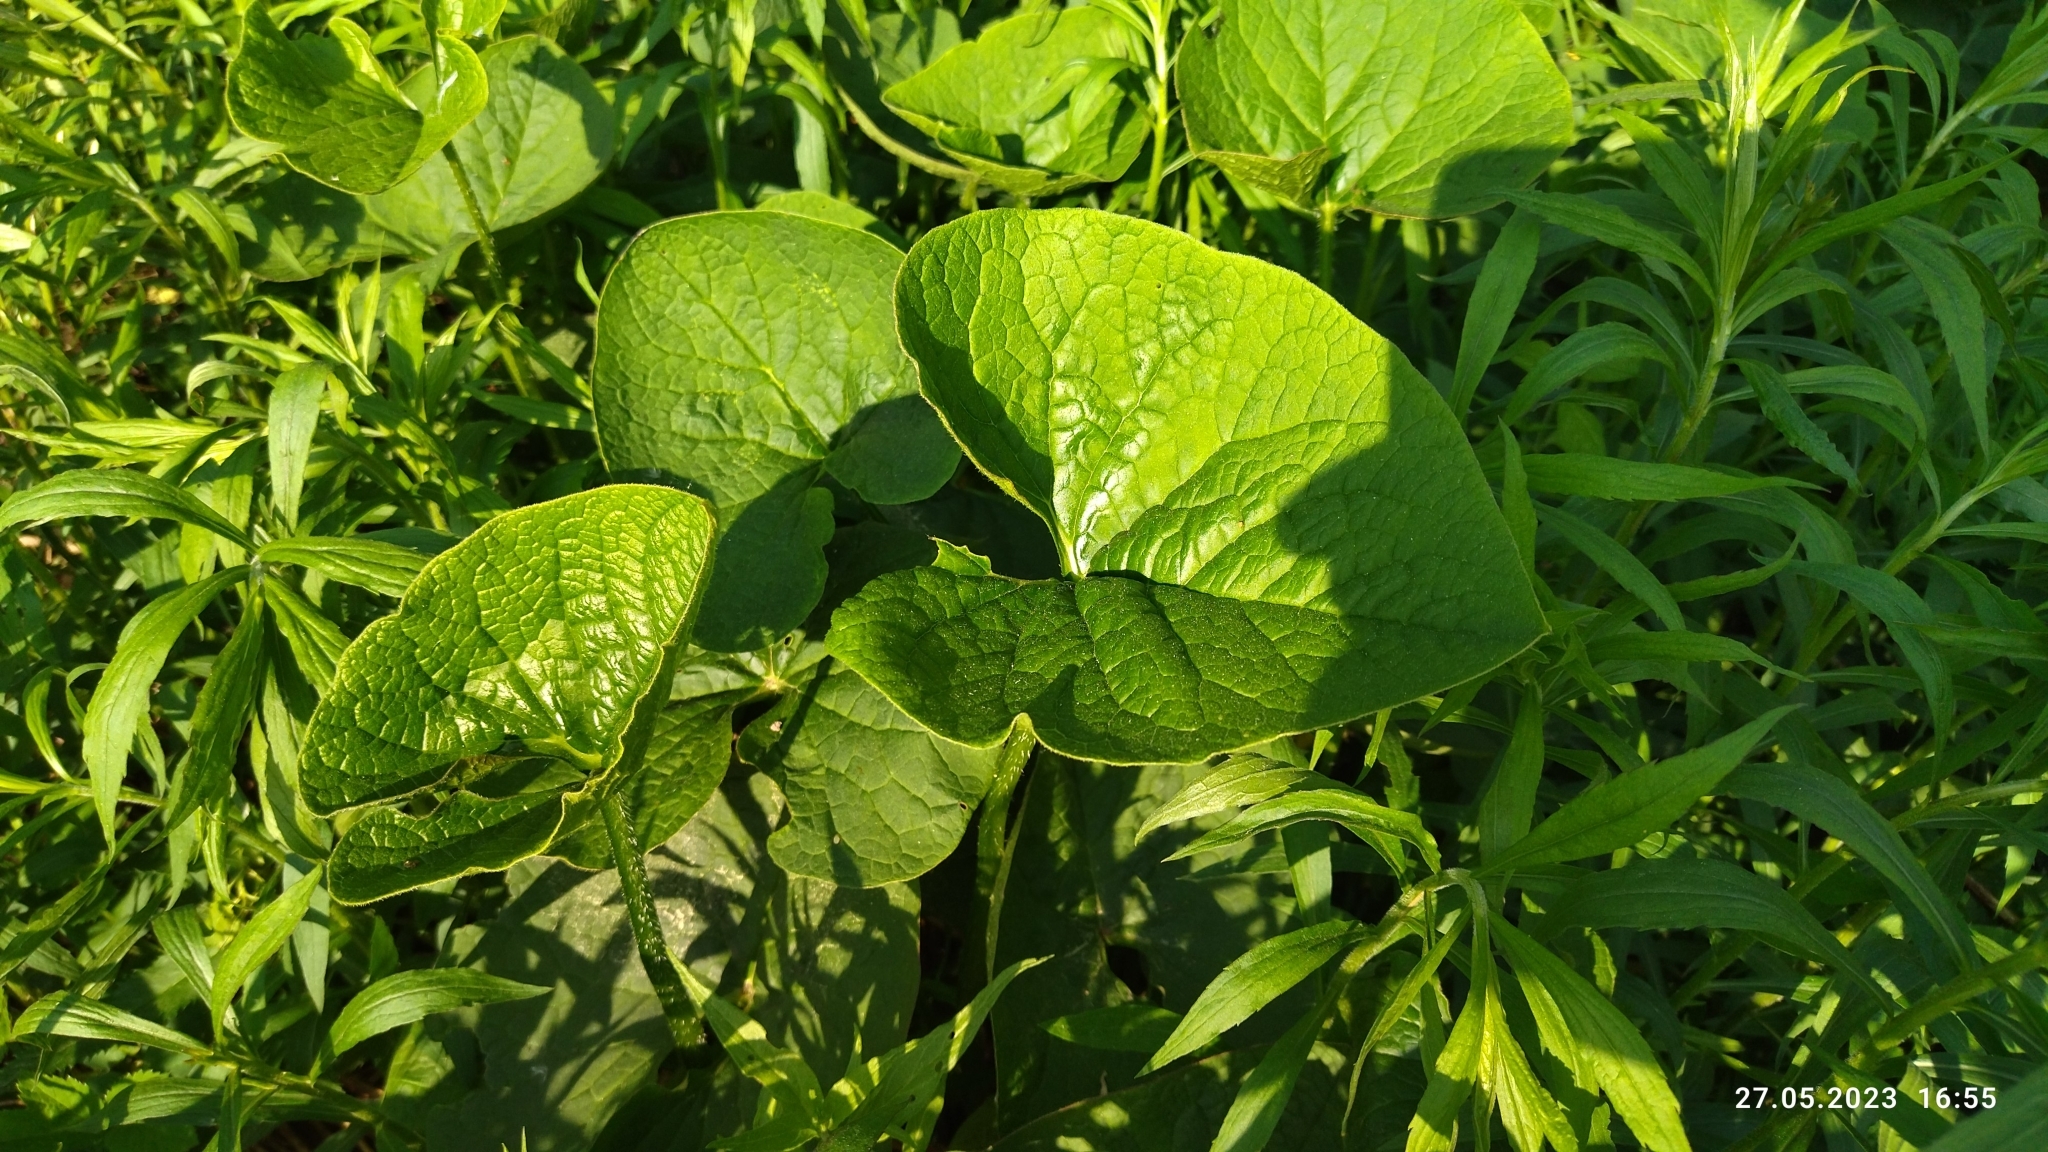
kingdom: Plantae
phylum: Tracheophyta
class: Magnoliopsida
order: Boraginales
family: Boraginaceae
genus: Brunnera
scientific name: Brunnera sibirica
